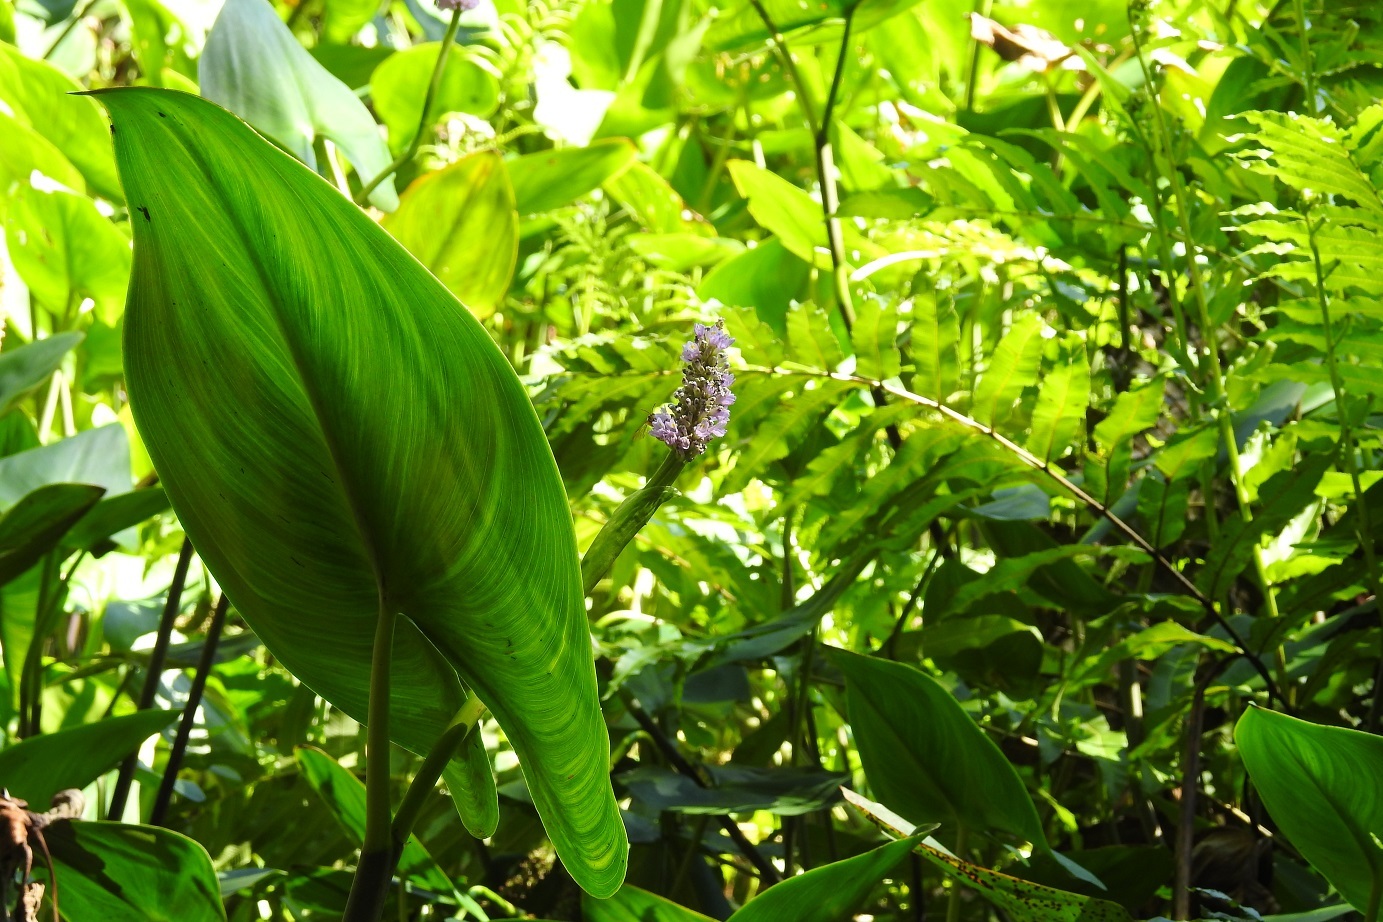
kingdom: Plantae
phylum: Tracheophyta
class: Liliopsida
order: Commelinales
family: Pontederiaceae
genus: Pontederia
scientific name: Pontederia sagittata
